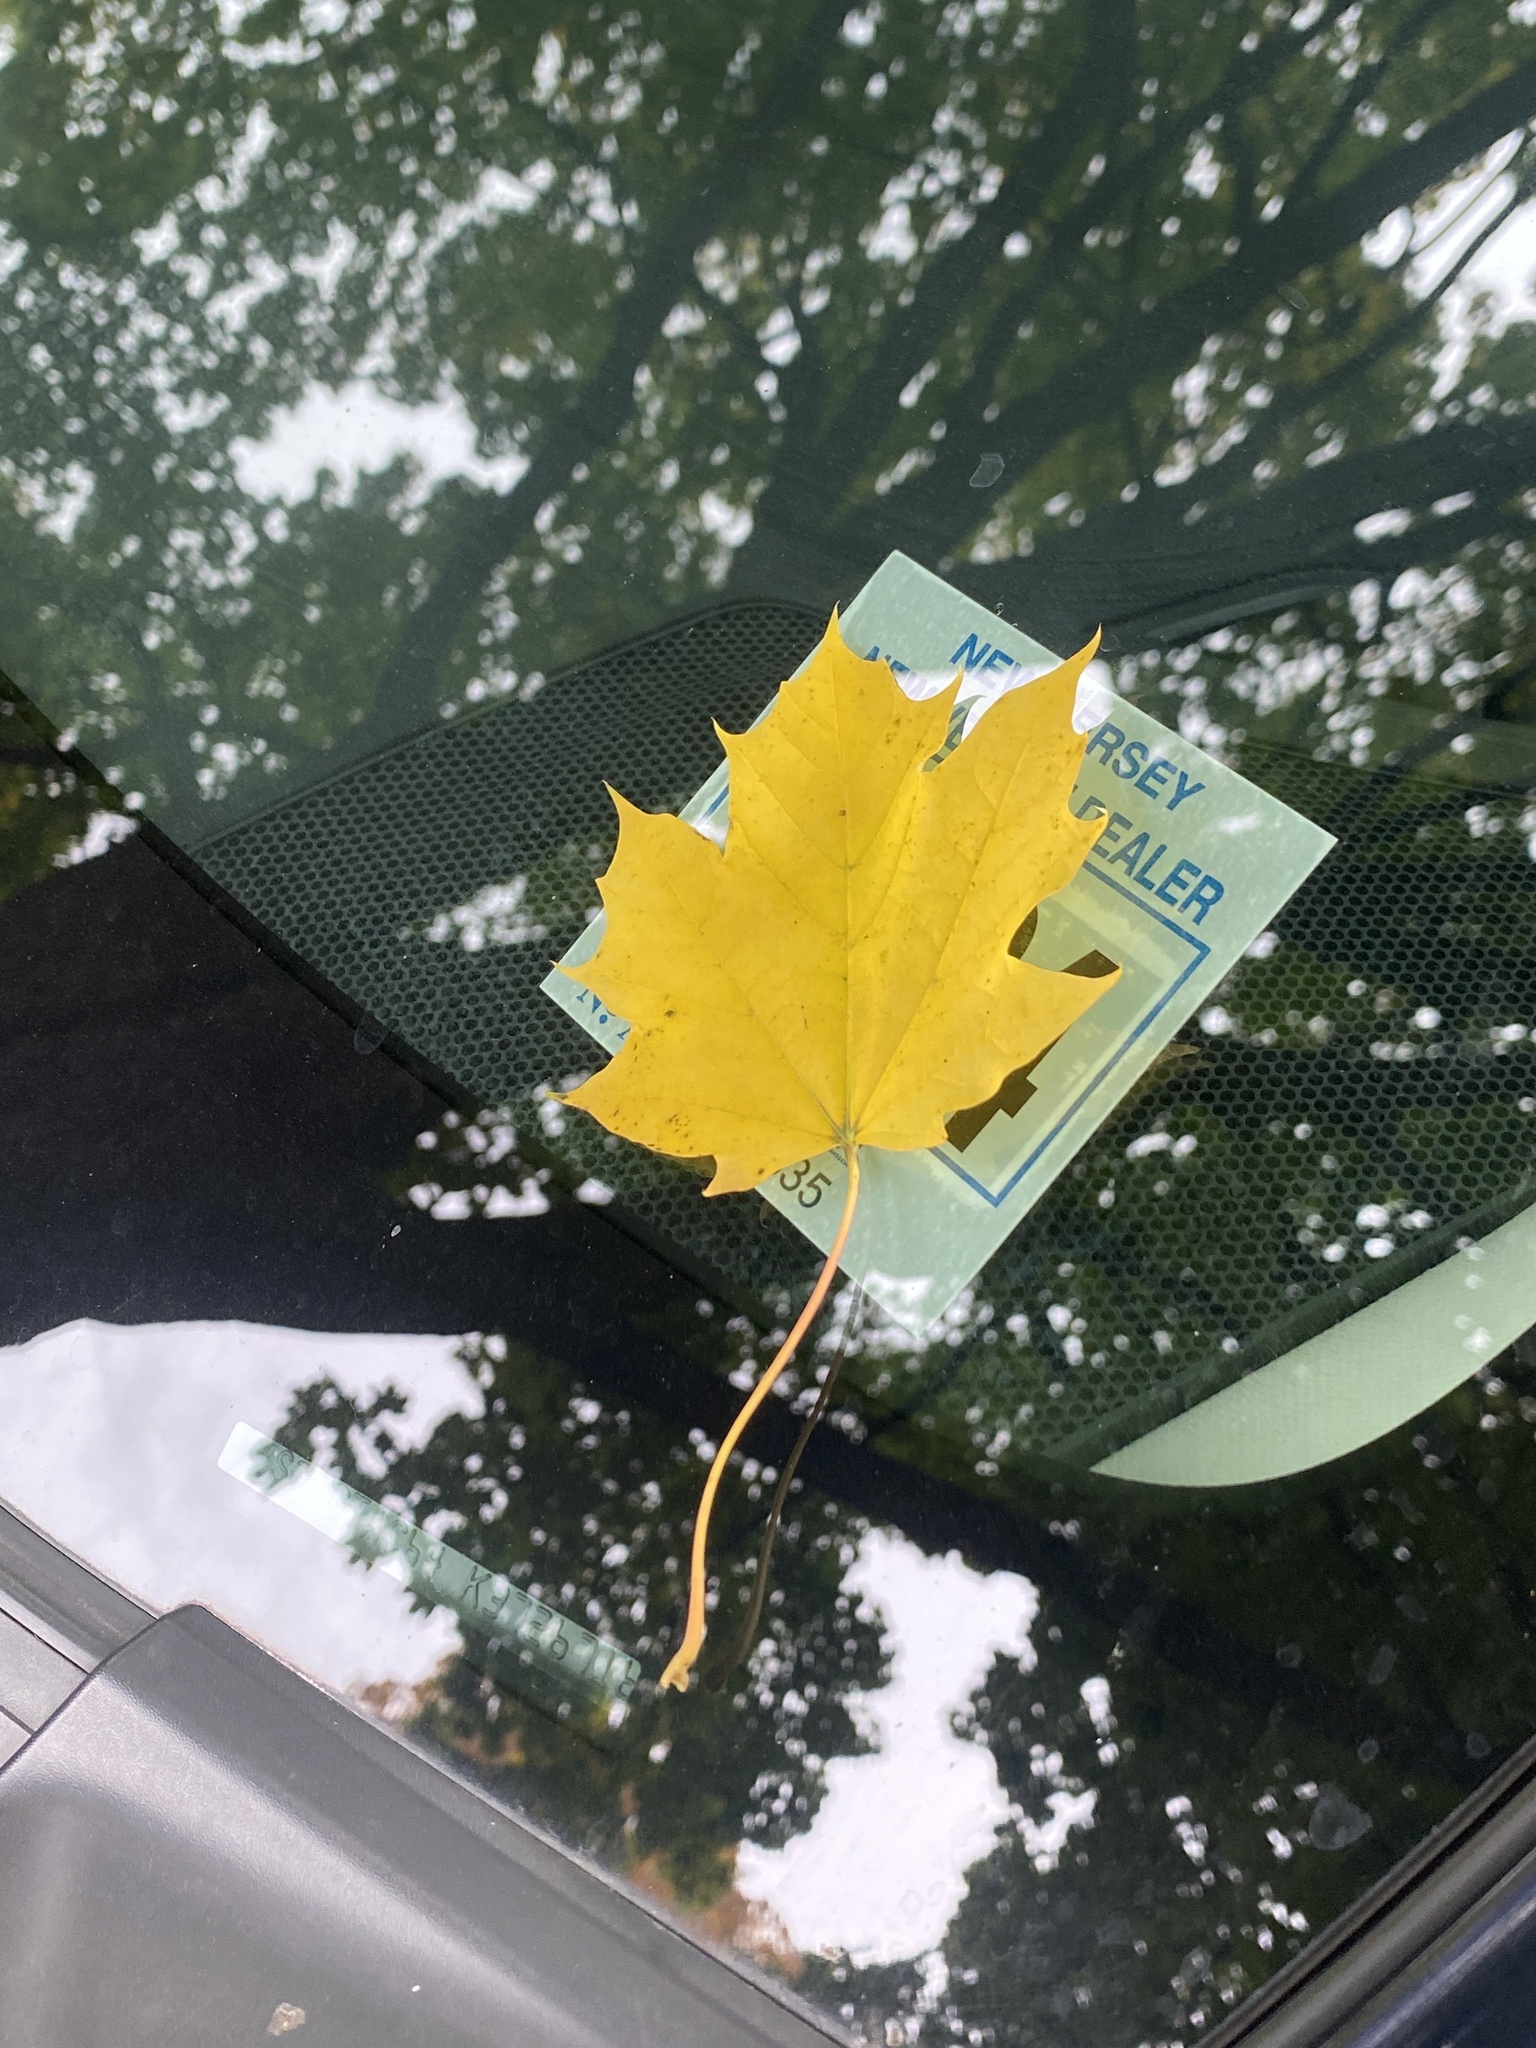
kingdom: Plantae
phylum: Tracheophyta
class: Magnoliopsida
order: Sapindales
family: Sapindaceae
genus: Acer
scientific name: Acer platanoides
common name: Norway maple
